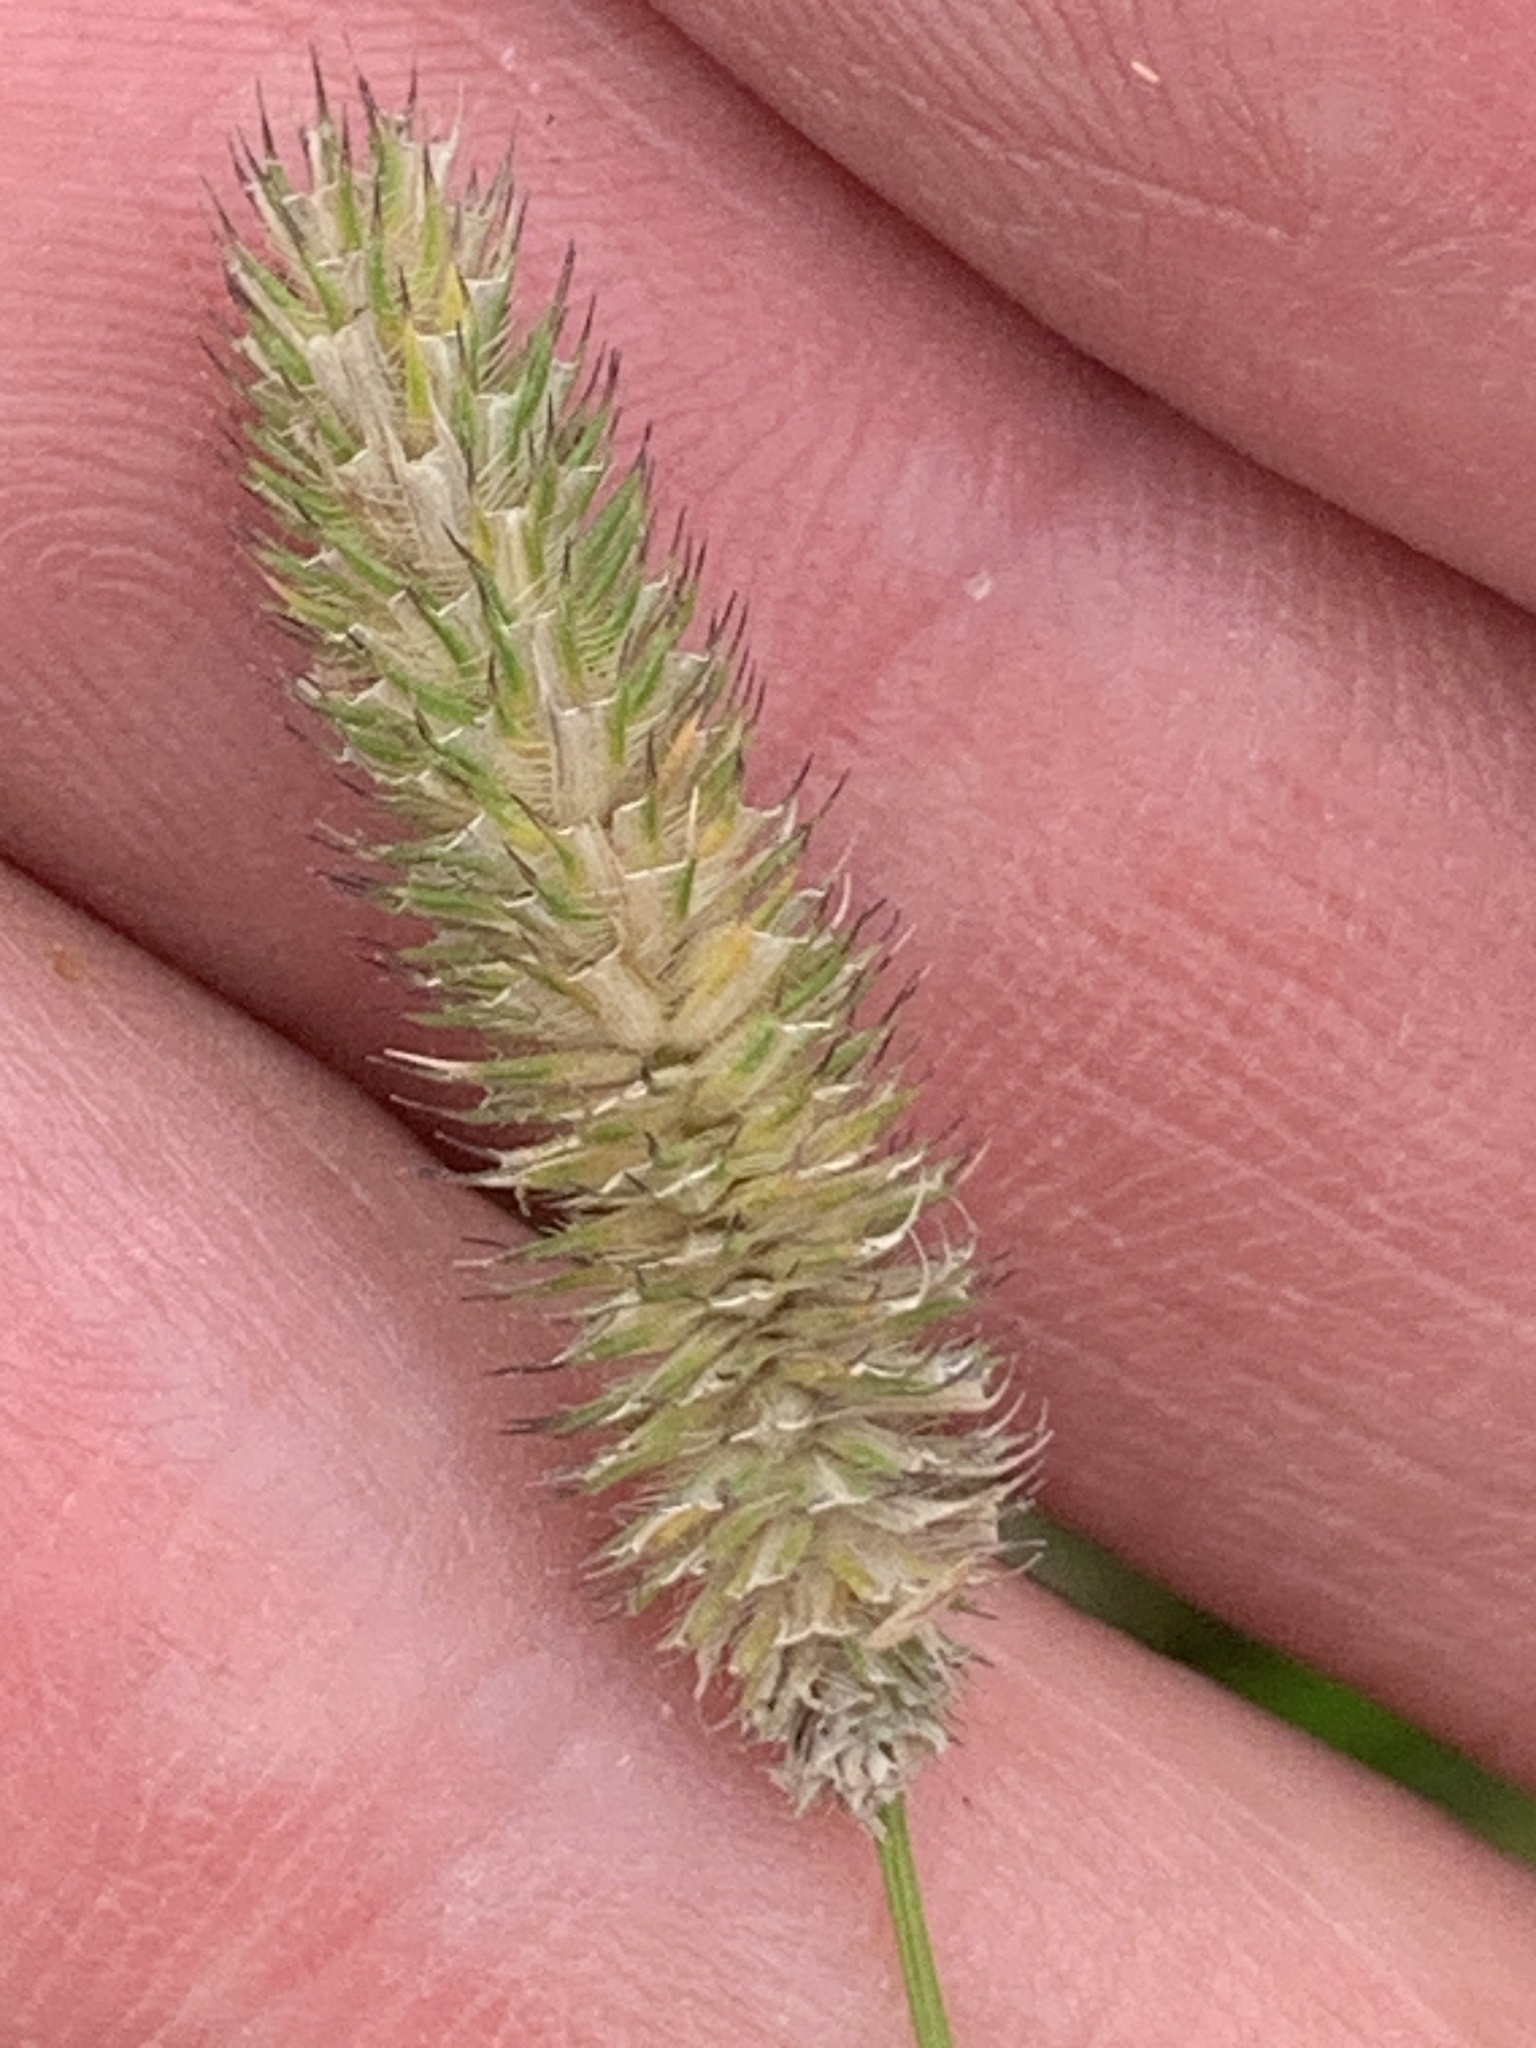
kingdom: Plantae
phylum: Tracheophyta
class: Liliopsida
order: Poales
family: Poaceae
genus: Phleum
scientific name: Phleum pratense
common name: Timothy grass
